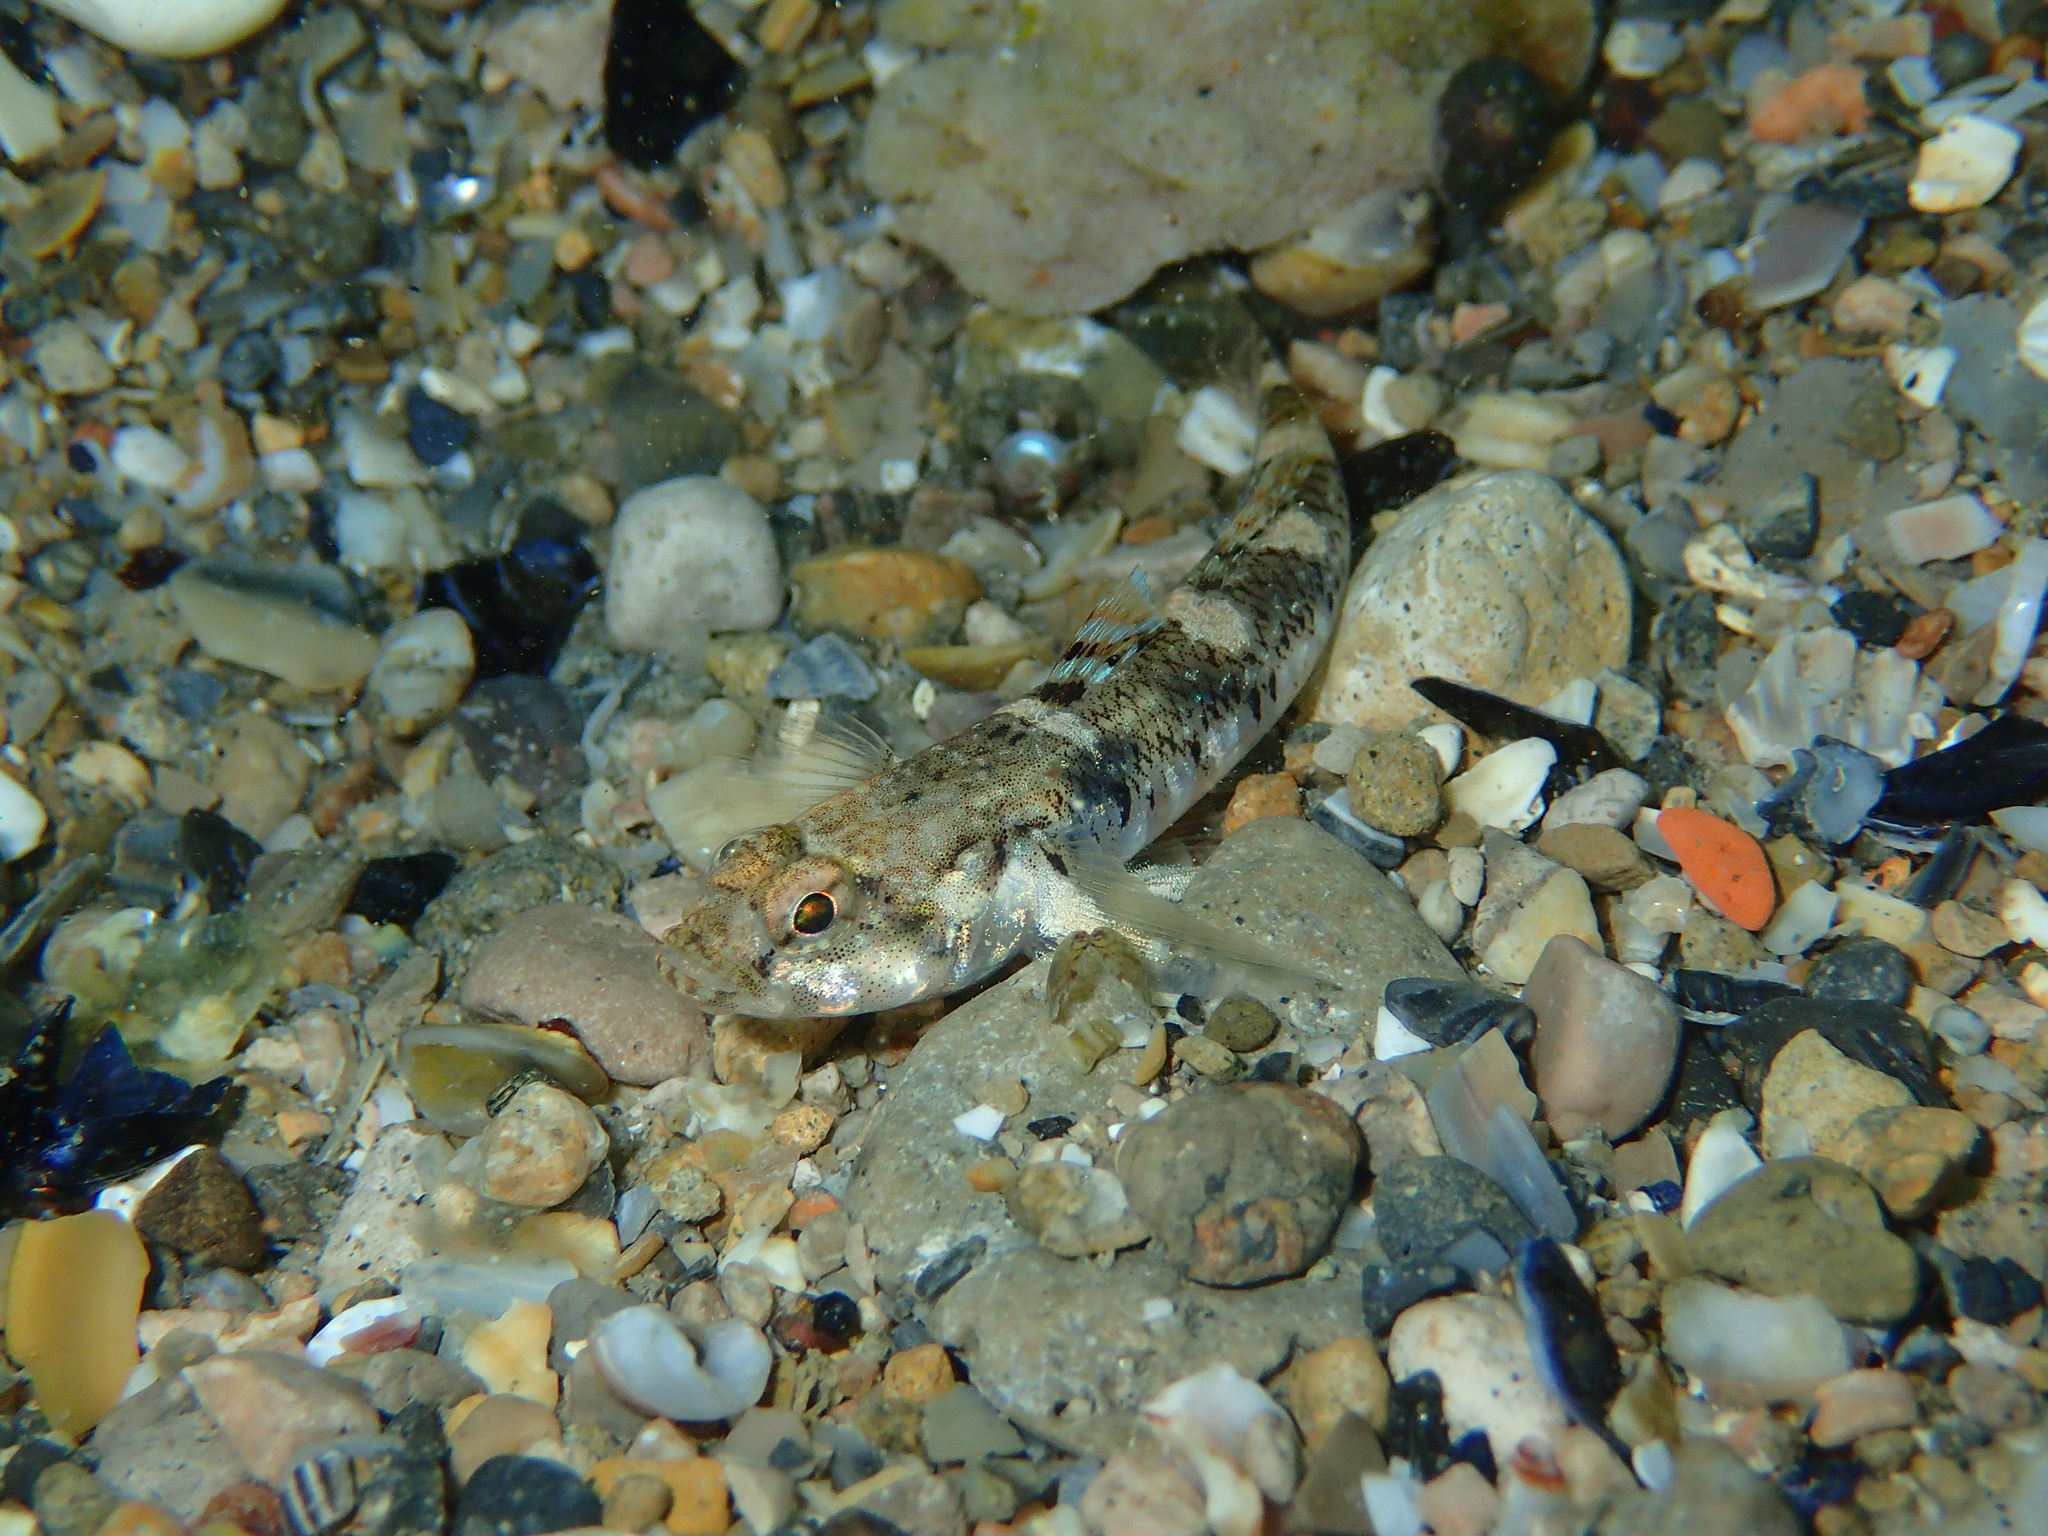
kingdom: Animalia
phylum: Chordata
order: Perciformes
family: Gobiidae
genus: Pomatoschistus
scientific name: Pomatoschistus pictus
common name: Painted goby
